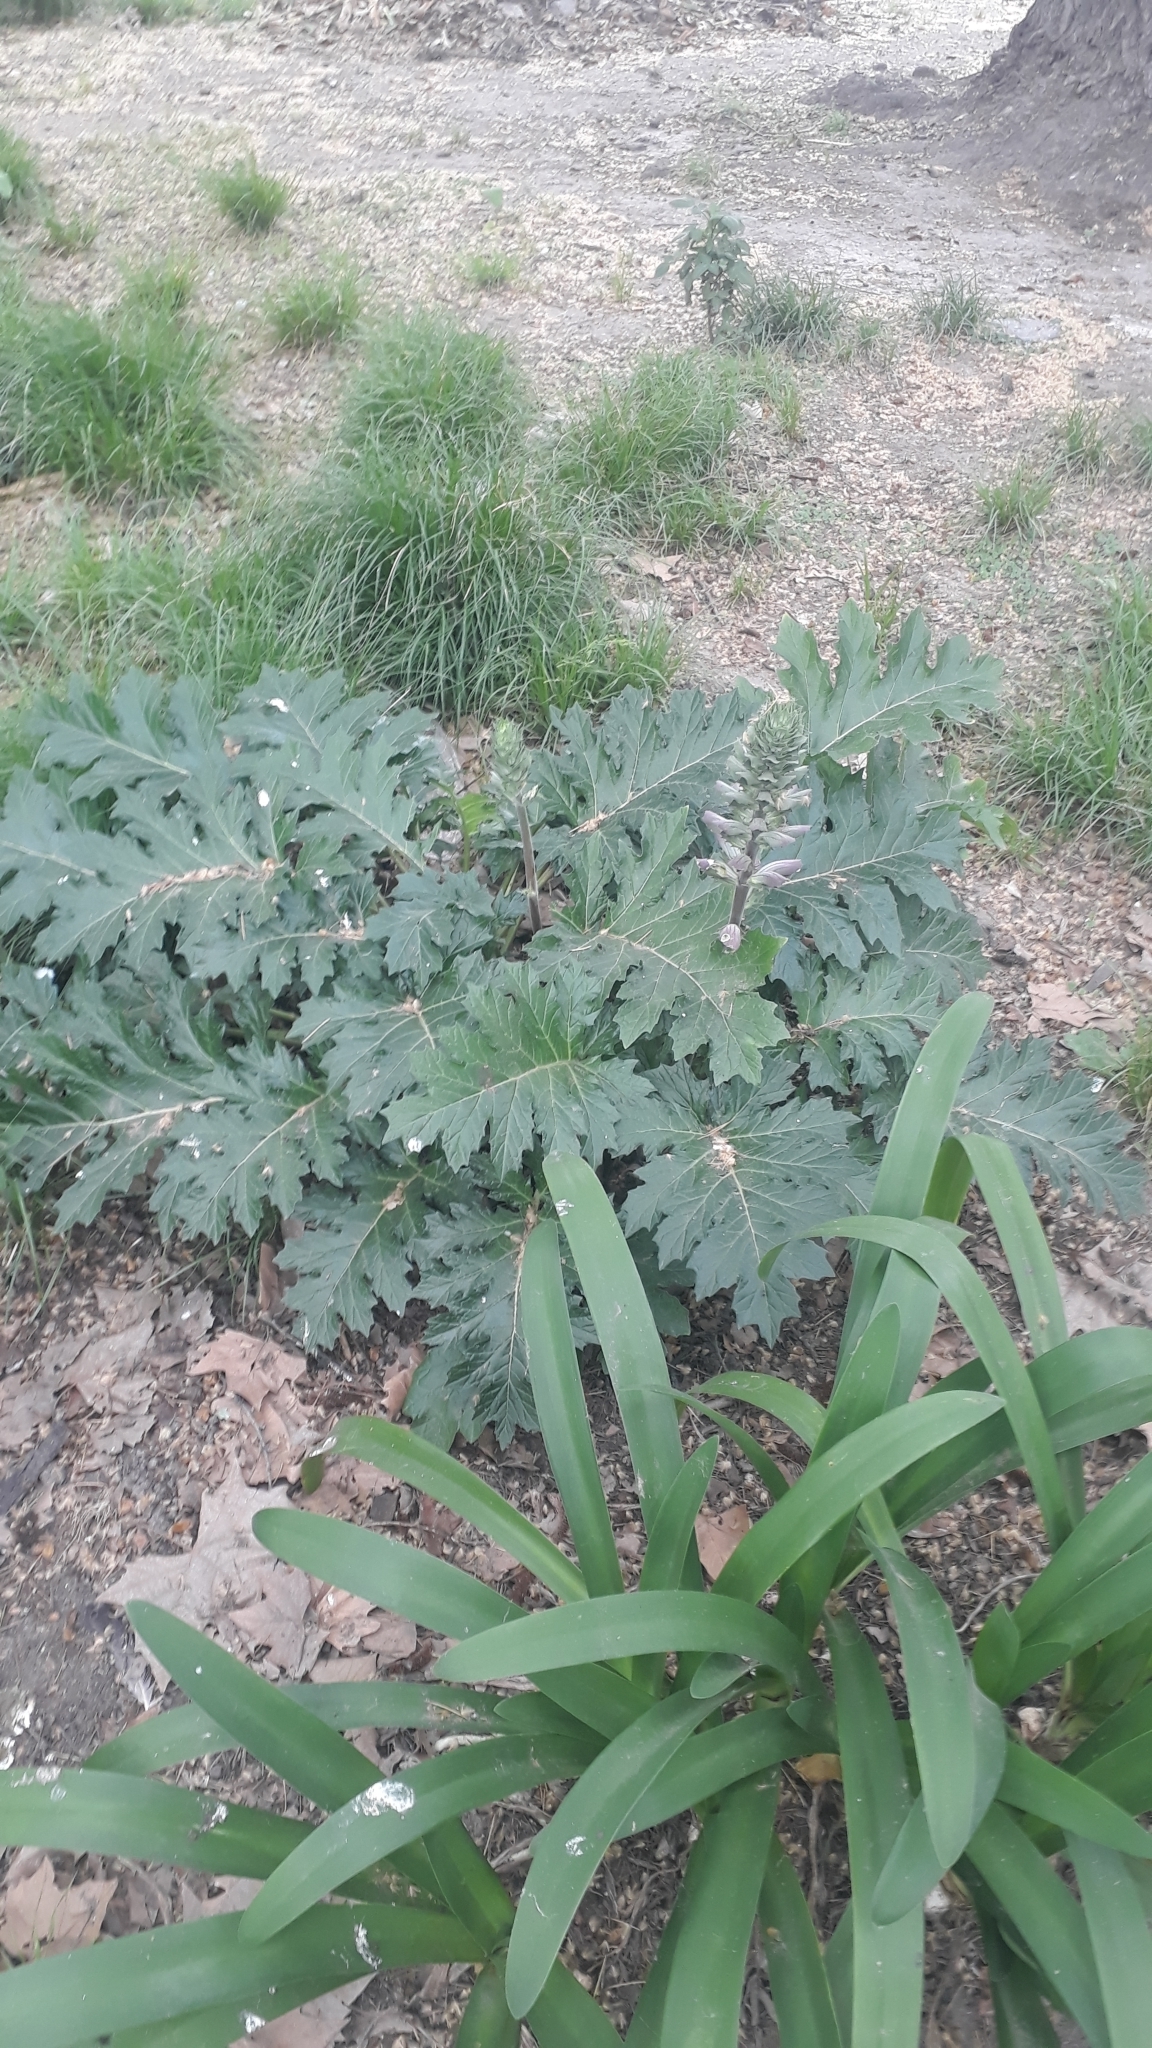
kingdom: Plantae
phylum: Tracheophyta
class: Magnoliopsida
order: Lamiales
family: Acanthaceae
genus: Acanthus
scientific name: Acanthus mollis
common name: Bear's-breech
